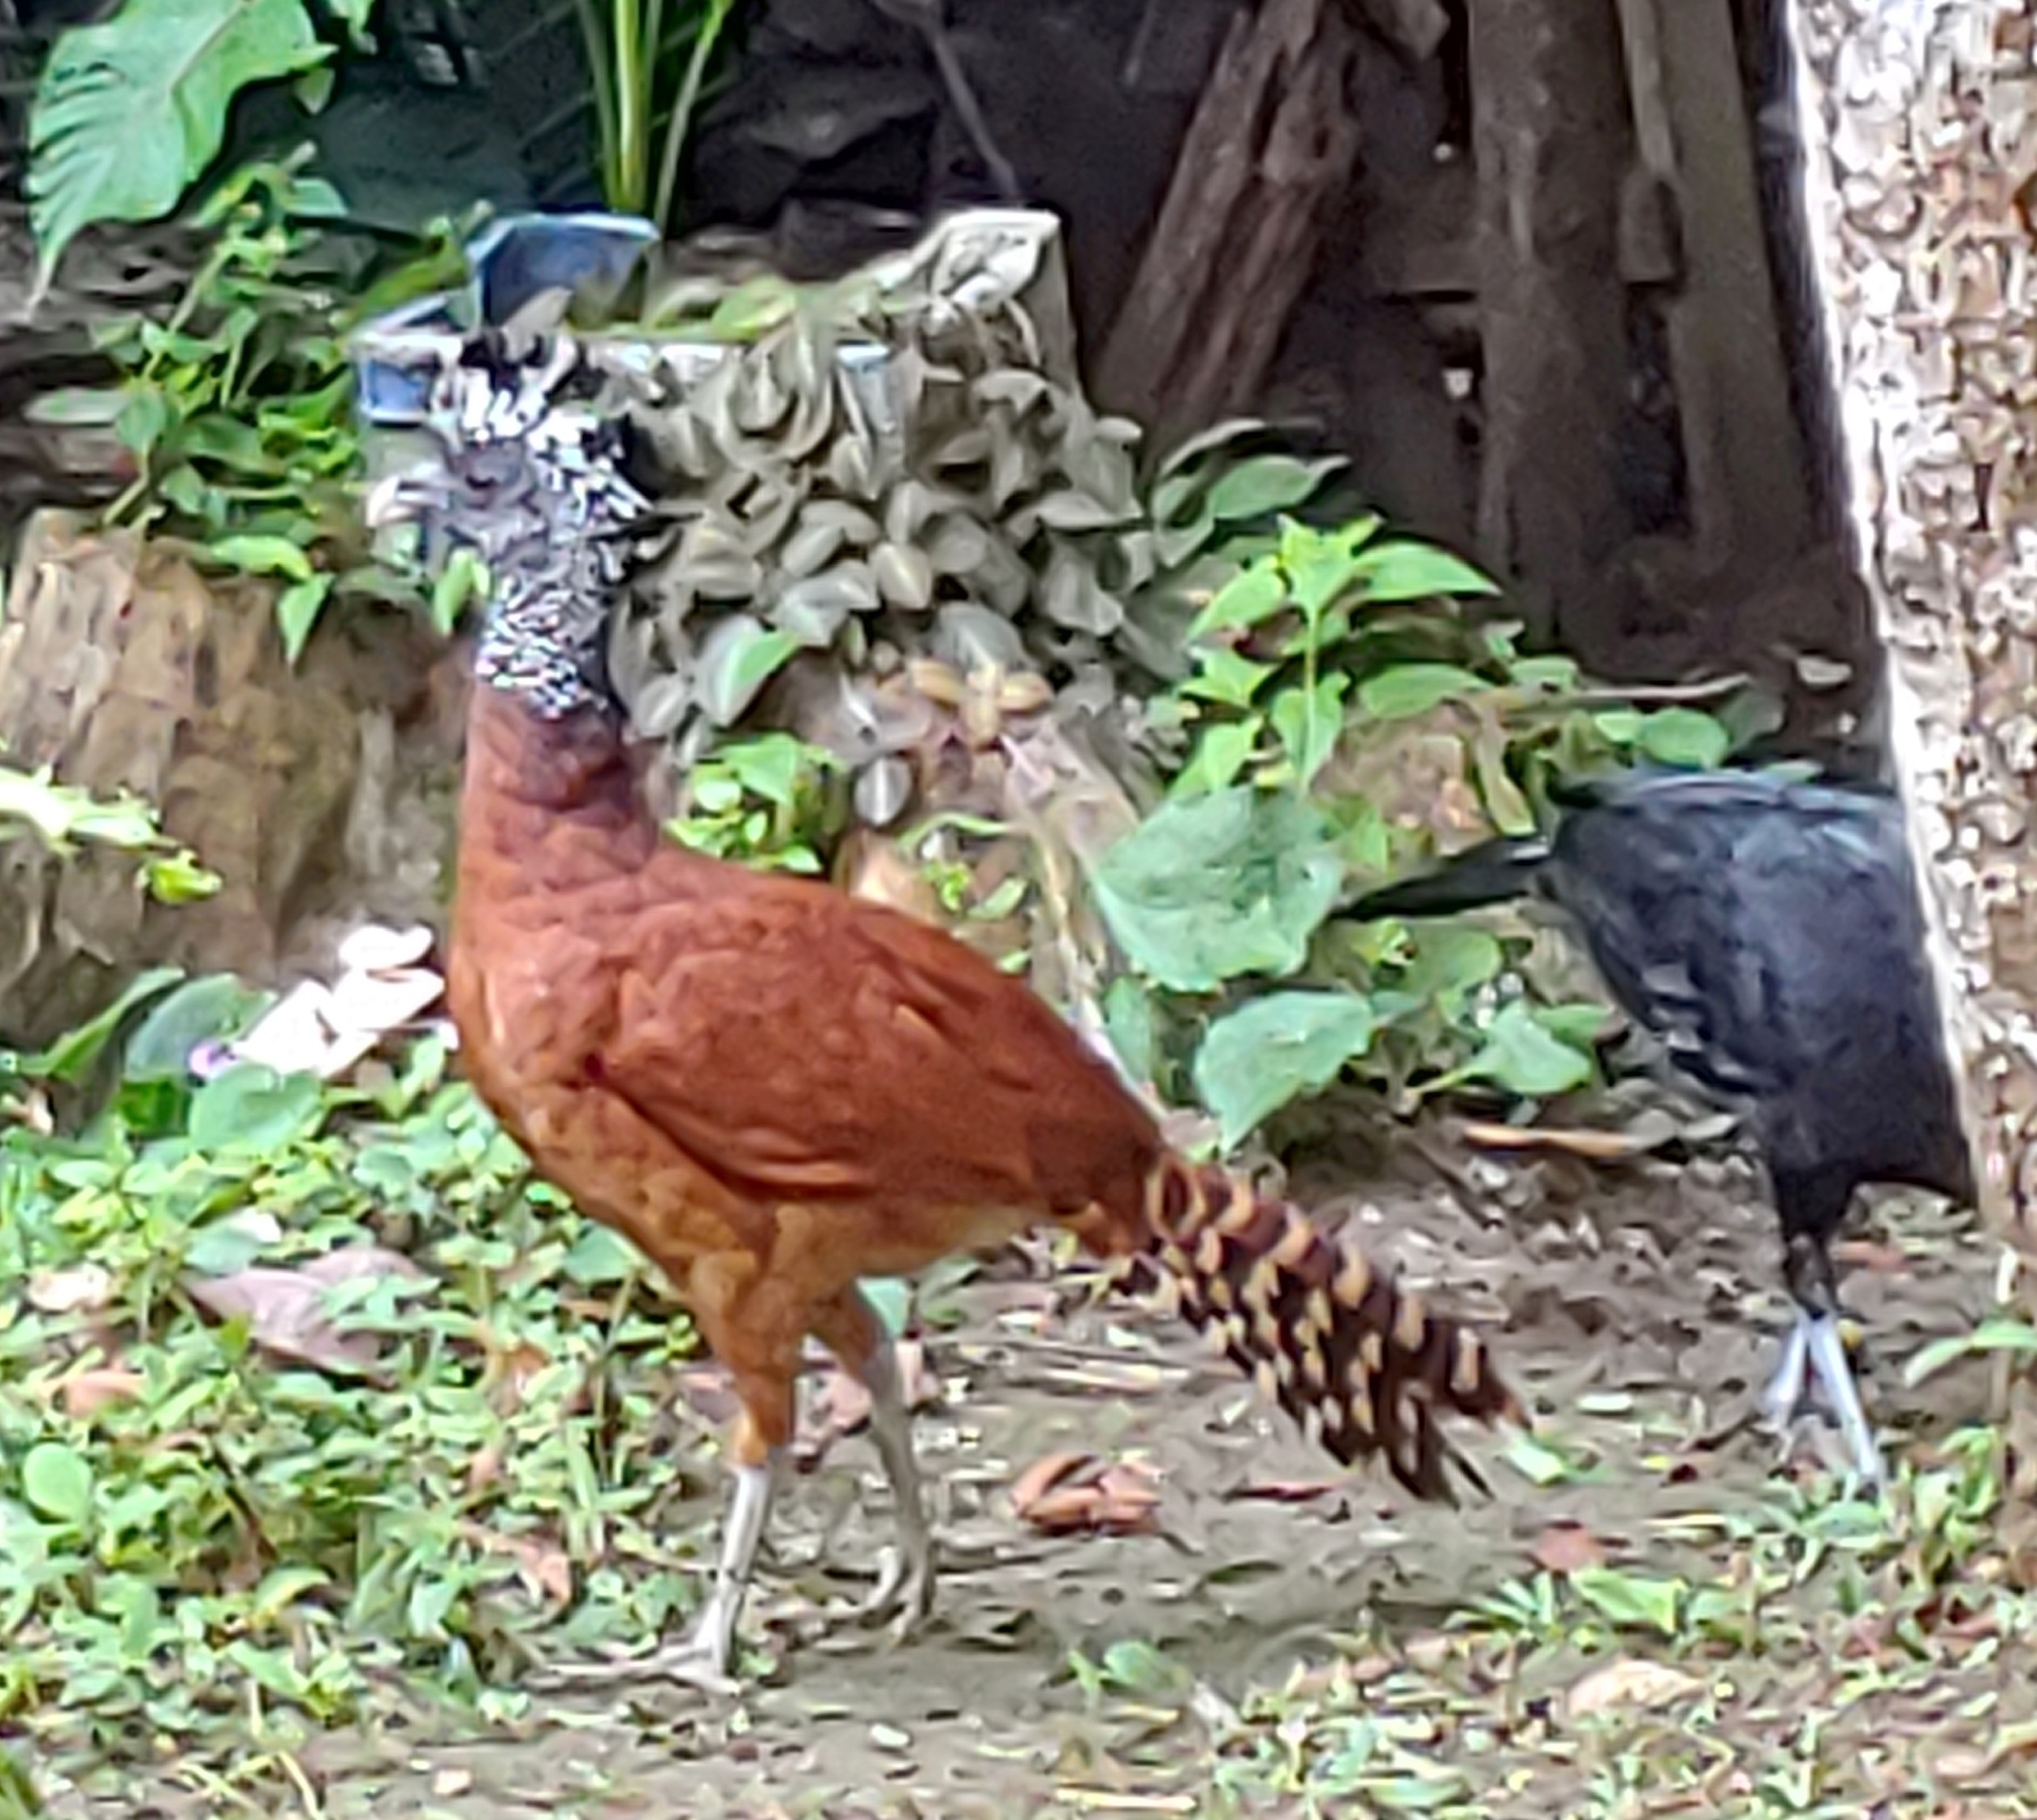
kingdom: Animalia
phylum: Chordata
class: Aves
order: Galliformes
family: Cracidae
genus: Crax
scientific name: Crax rubra
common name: Great curassow
